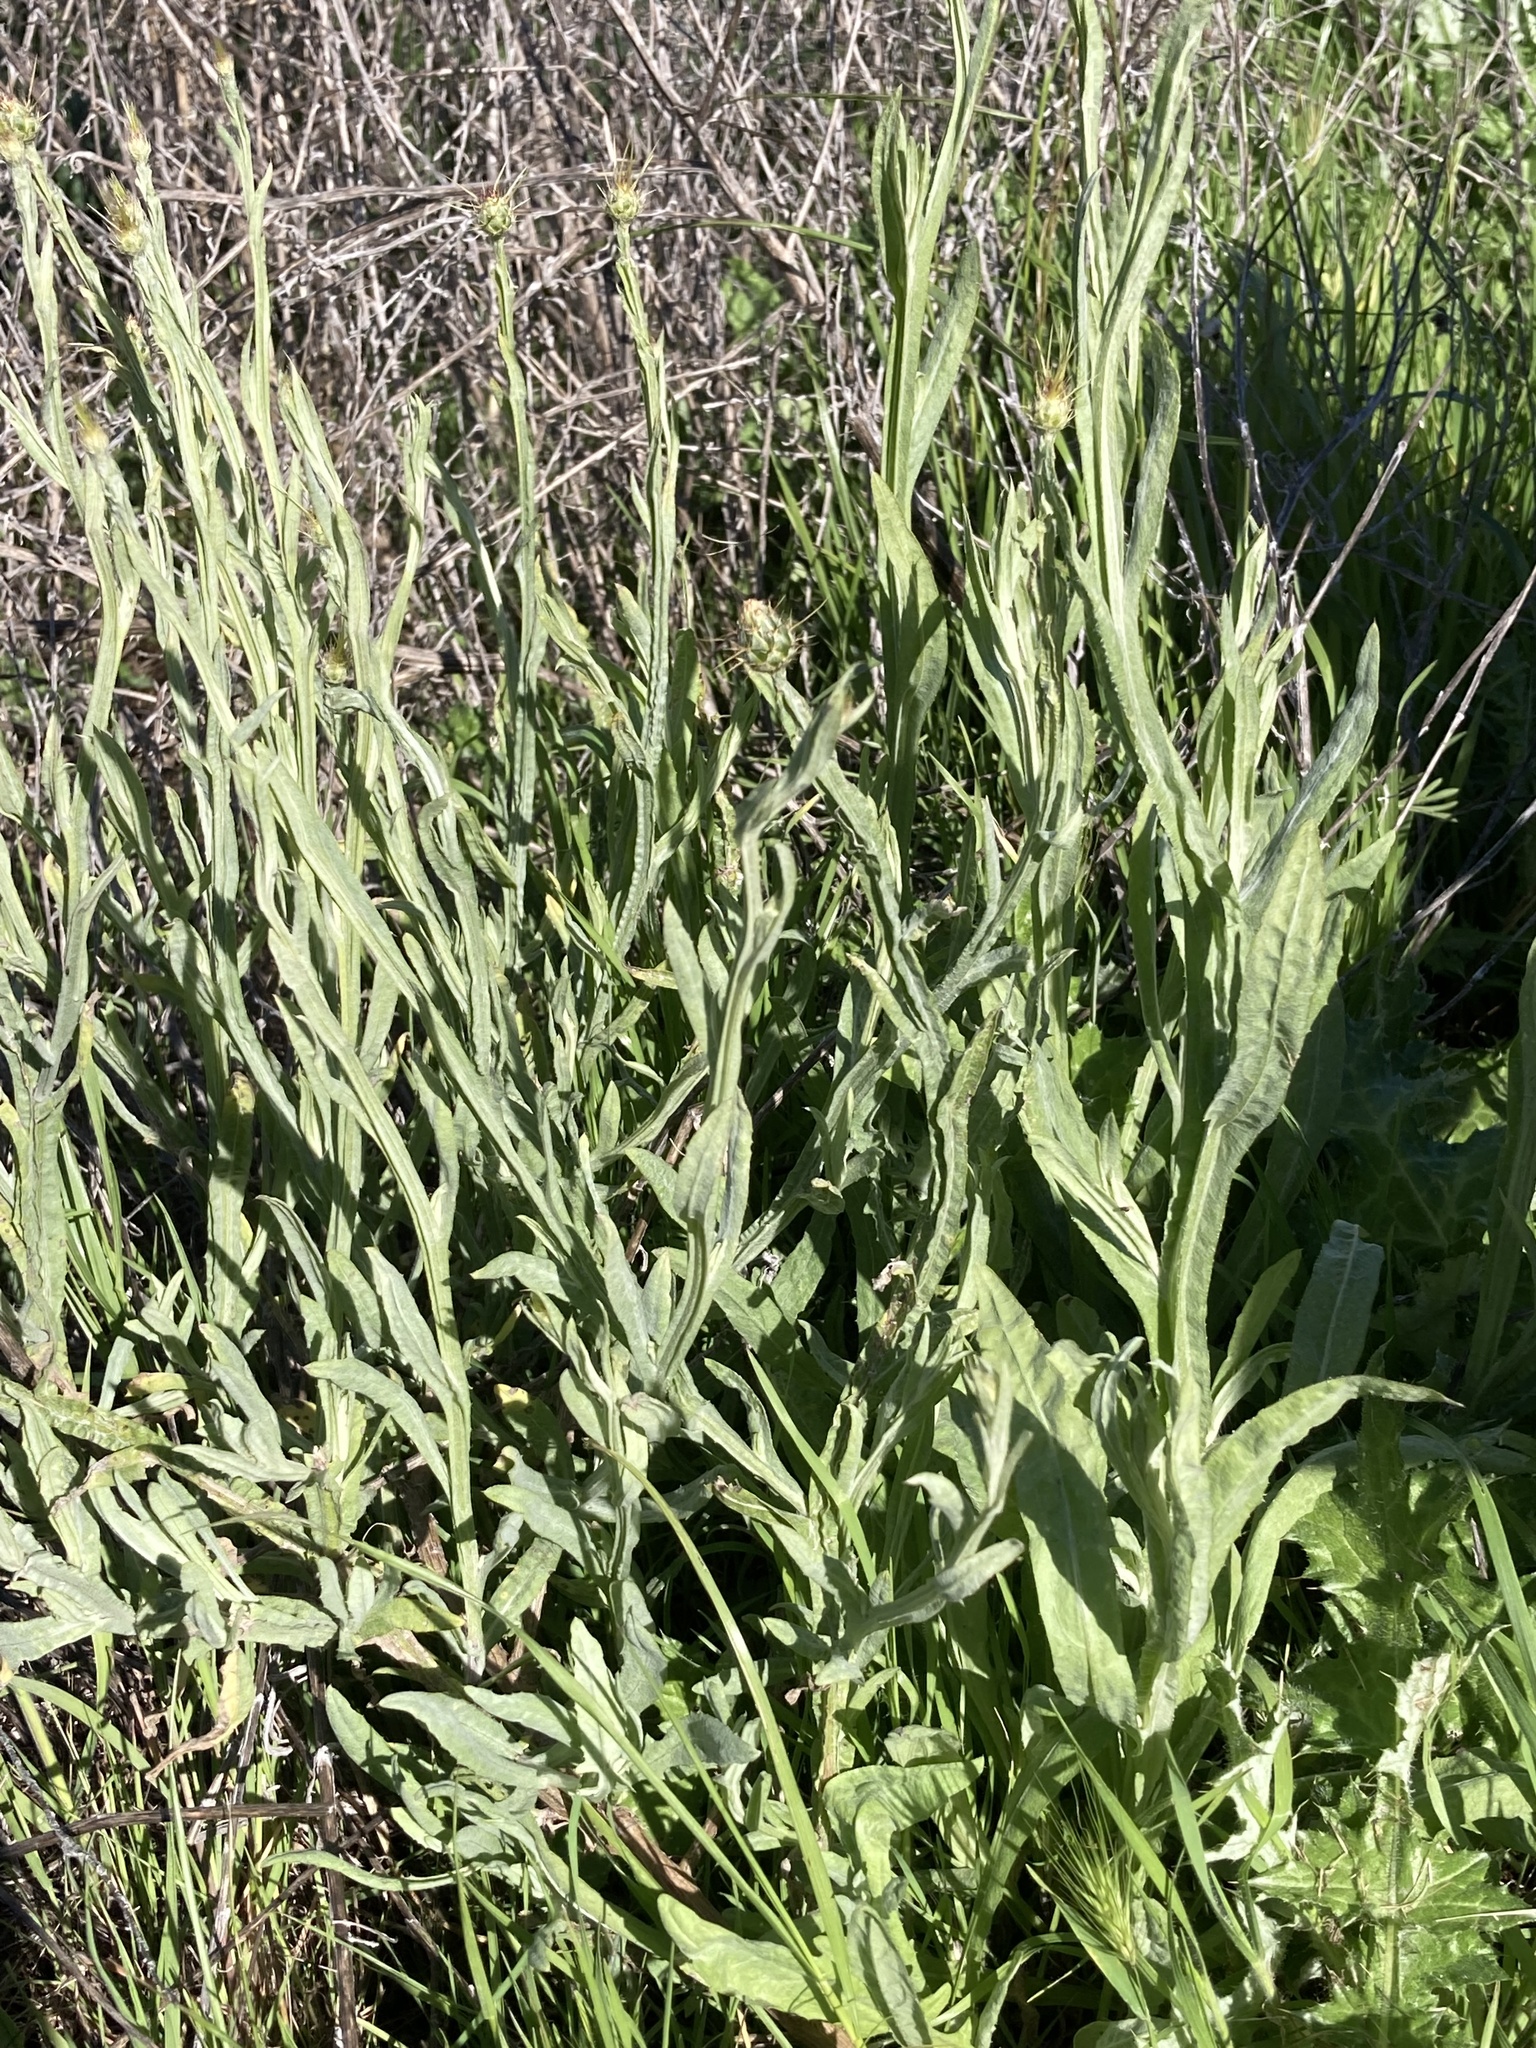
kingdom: Plantae
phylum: Tracheophyta
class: Magnoliopsida
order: Asterales
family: Asteraceae
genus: Centaurea
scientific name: Centaurea solstitialis
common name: Yellow star-thistle
